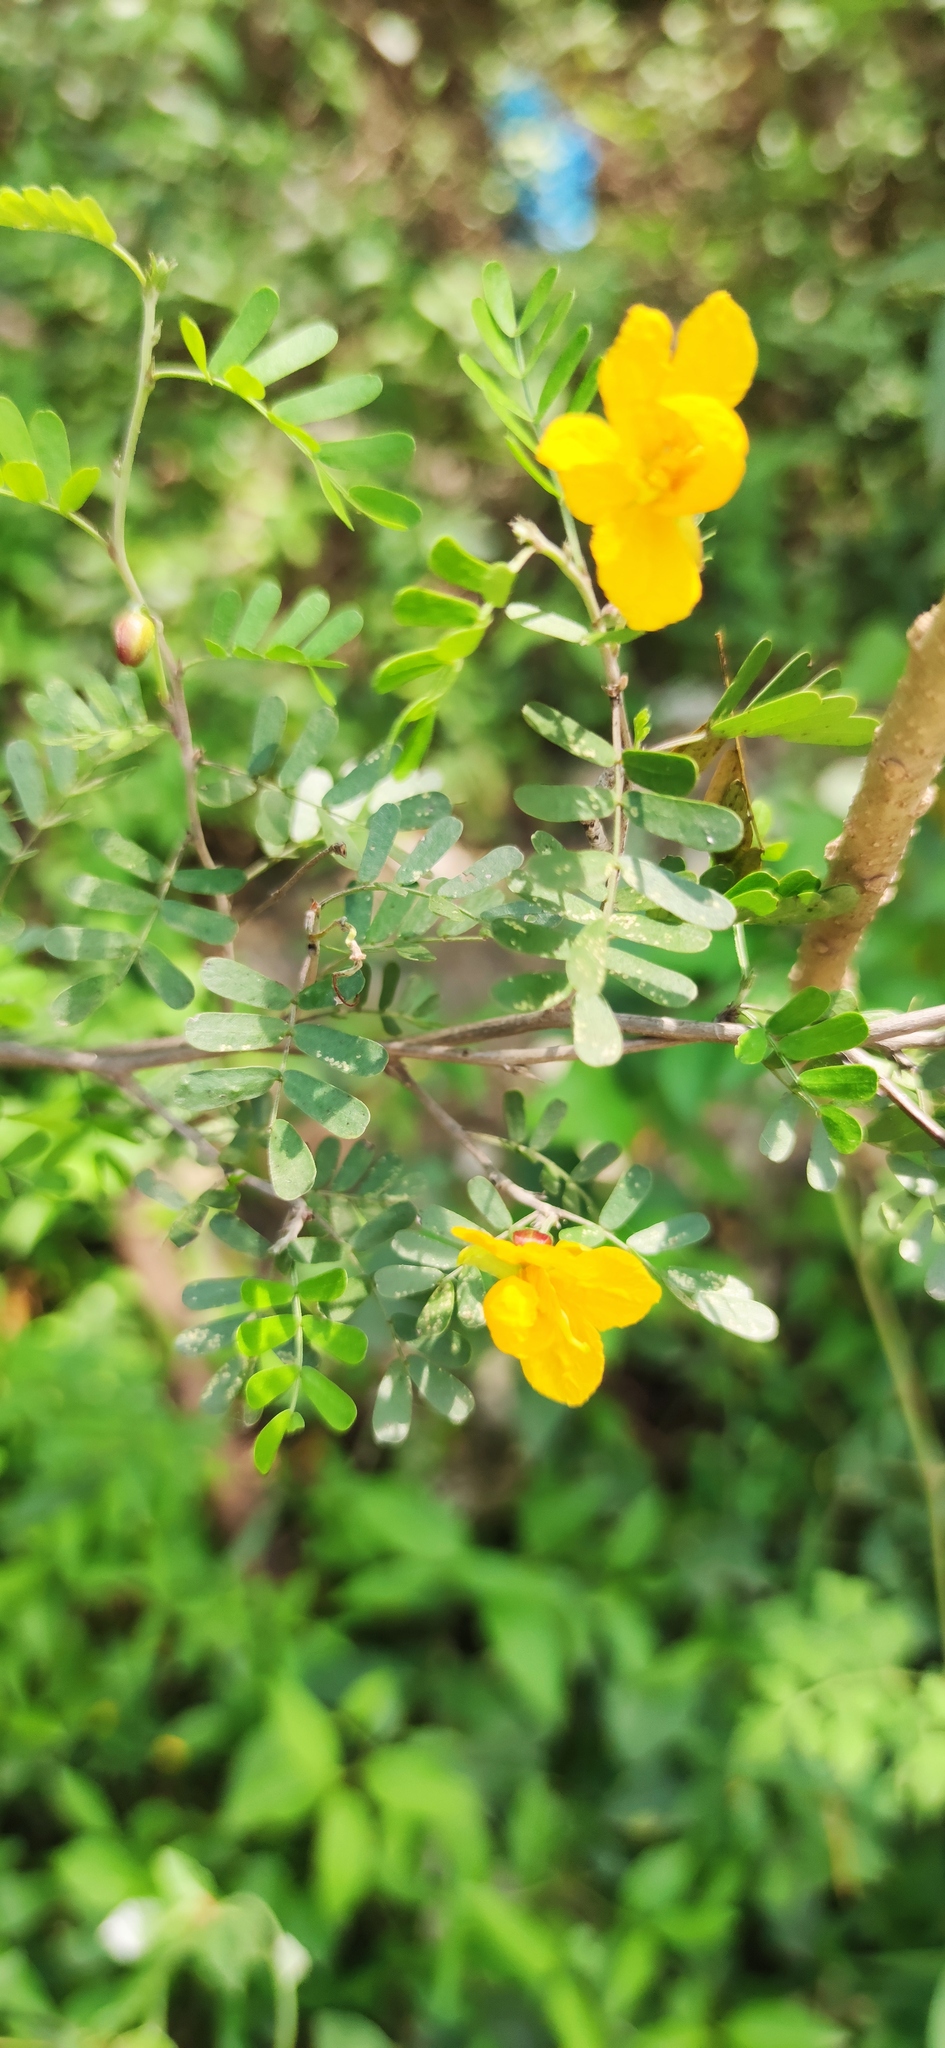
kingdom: Plantae
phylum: Tracheophyta
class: Magnoliopsida
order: Fabales
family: Fabaceae
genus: Chamaecrista
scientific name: Chamaecrista greggii
